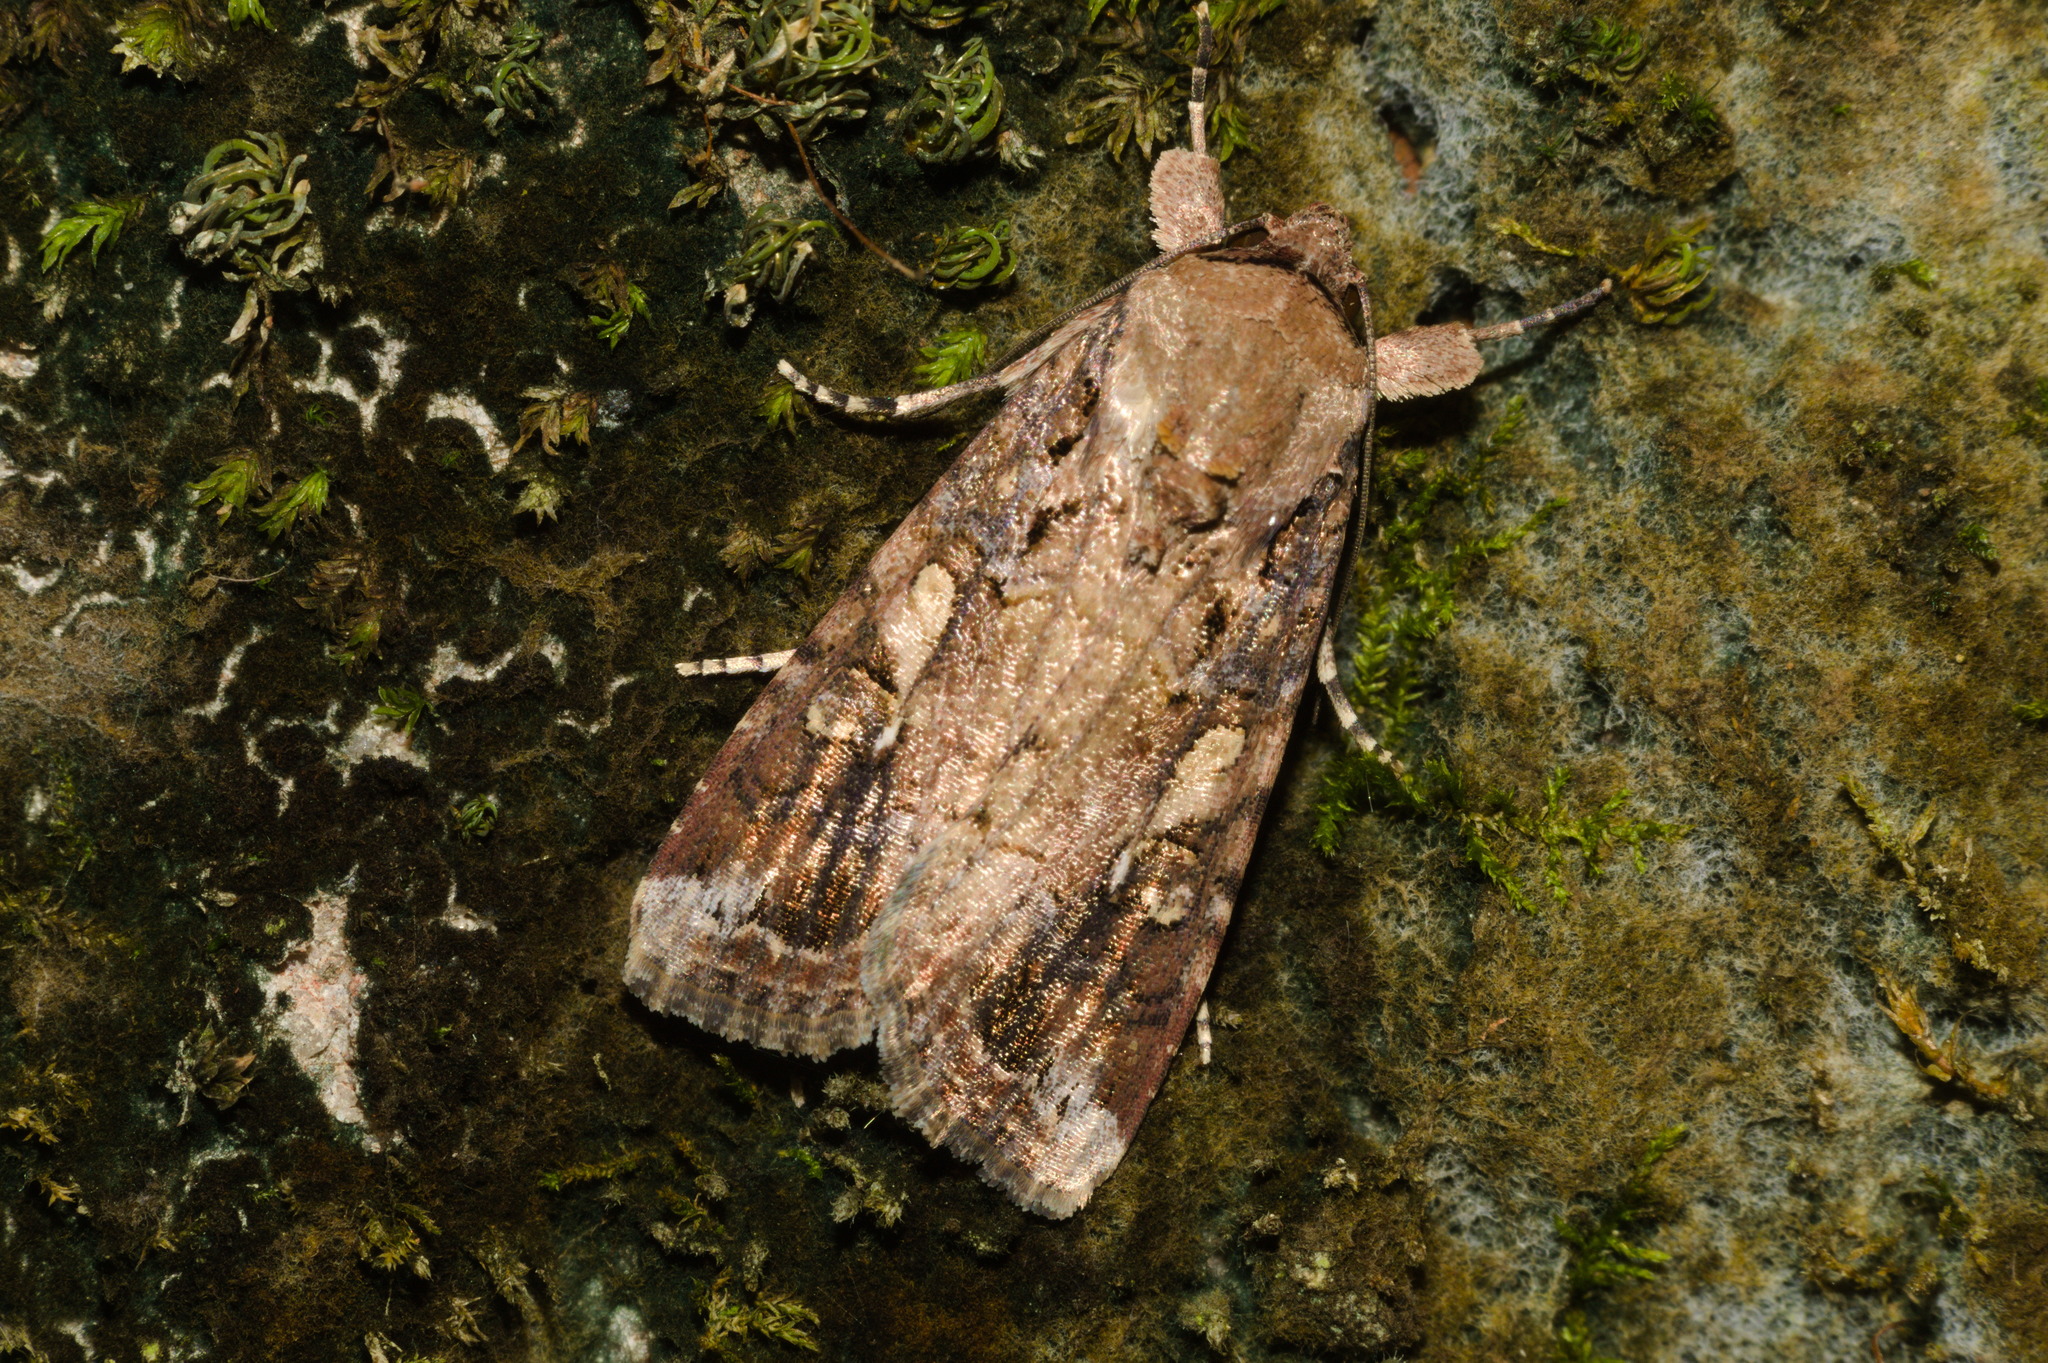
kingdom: Animalia
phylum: Arthropoda
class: Insecta
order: Lepidoptera
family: Noctuidae
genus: Spodoptera
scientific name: Spodoptera frugiperda
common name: Fall armyworm
